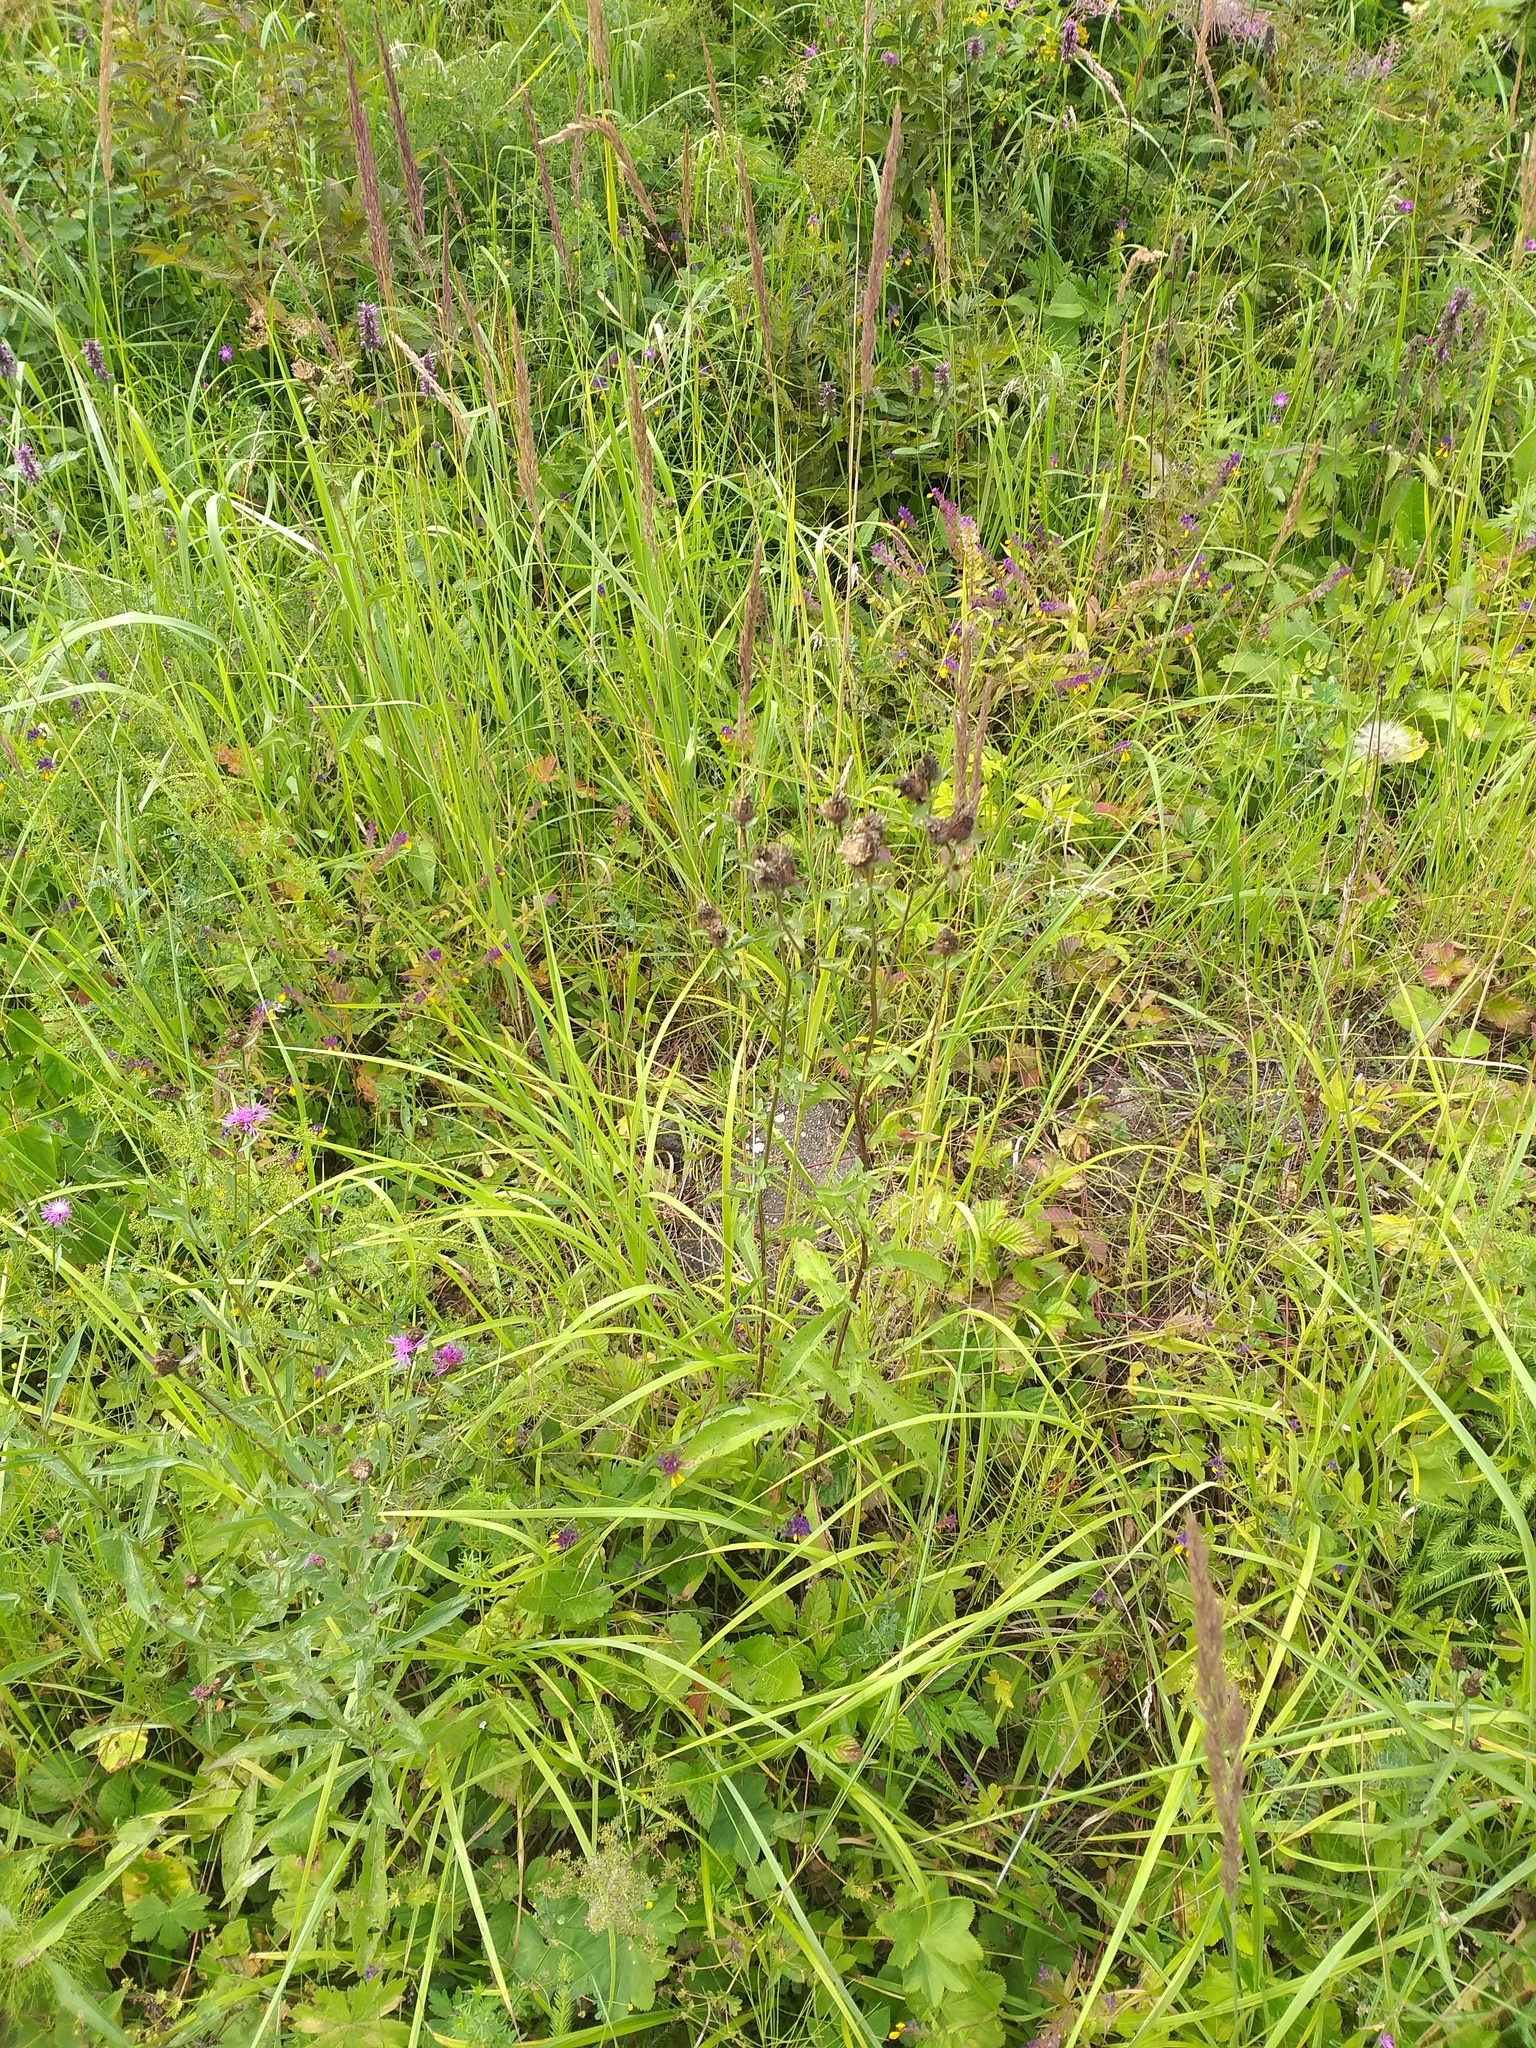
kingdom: Plantae
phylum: Tracheophyta
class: Magnoliopsida
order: Asterales
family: Asteraceae
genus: Centaurea
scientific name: Centaurea jacea
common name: Brown knapweed
